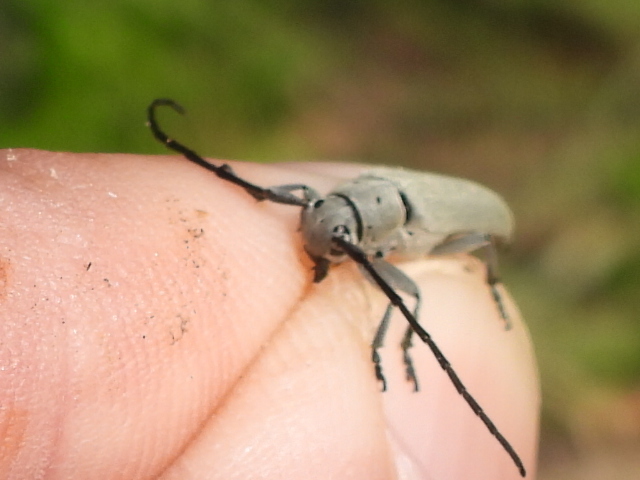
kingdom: Animalia
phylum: Arthropoda
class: Insecta
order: Coleoptera
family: Cerambycidae
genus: Mecas
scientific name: Mecas cana
